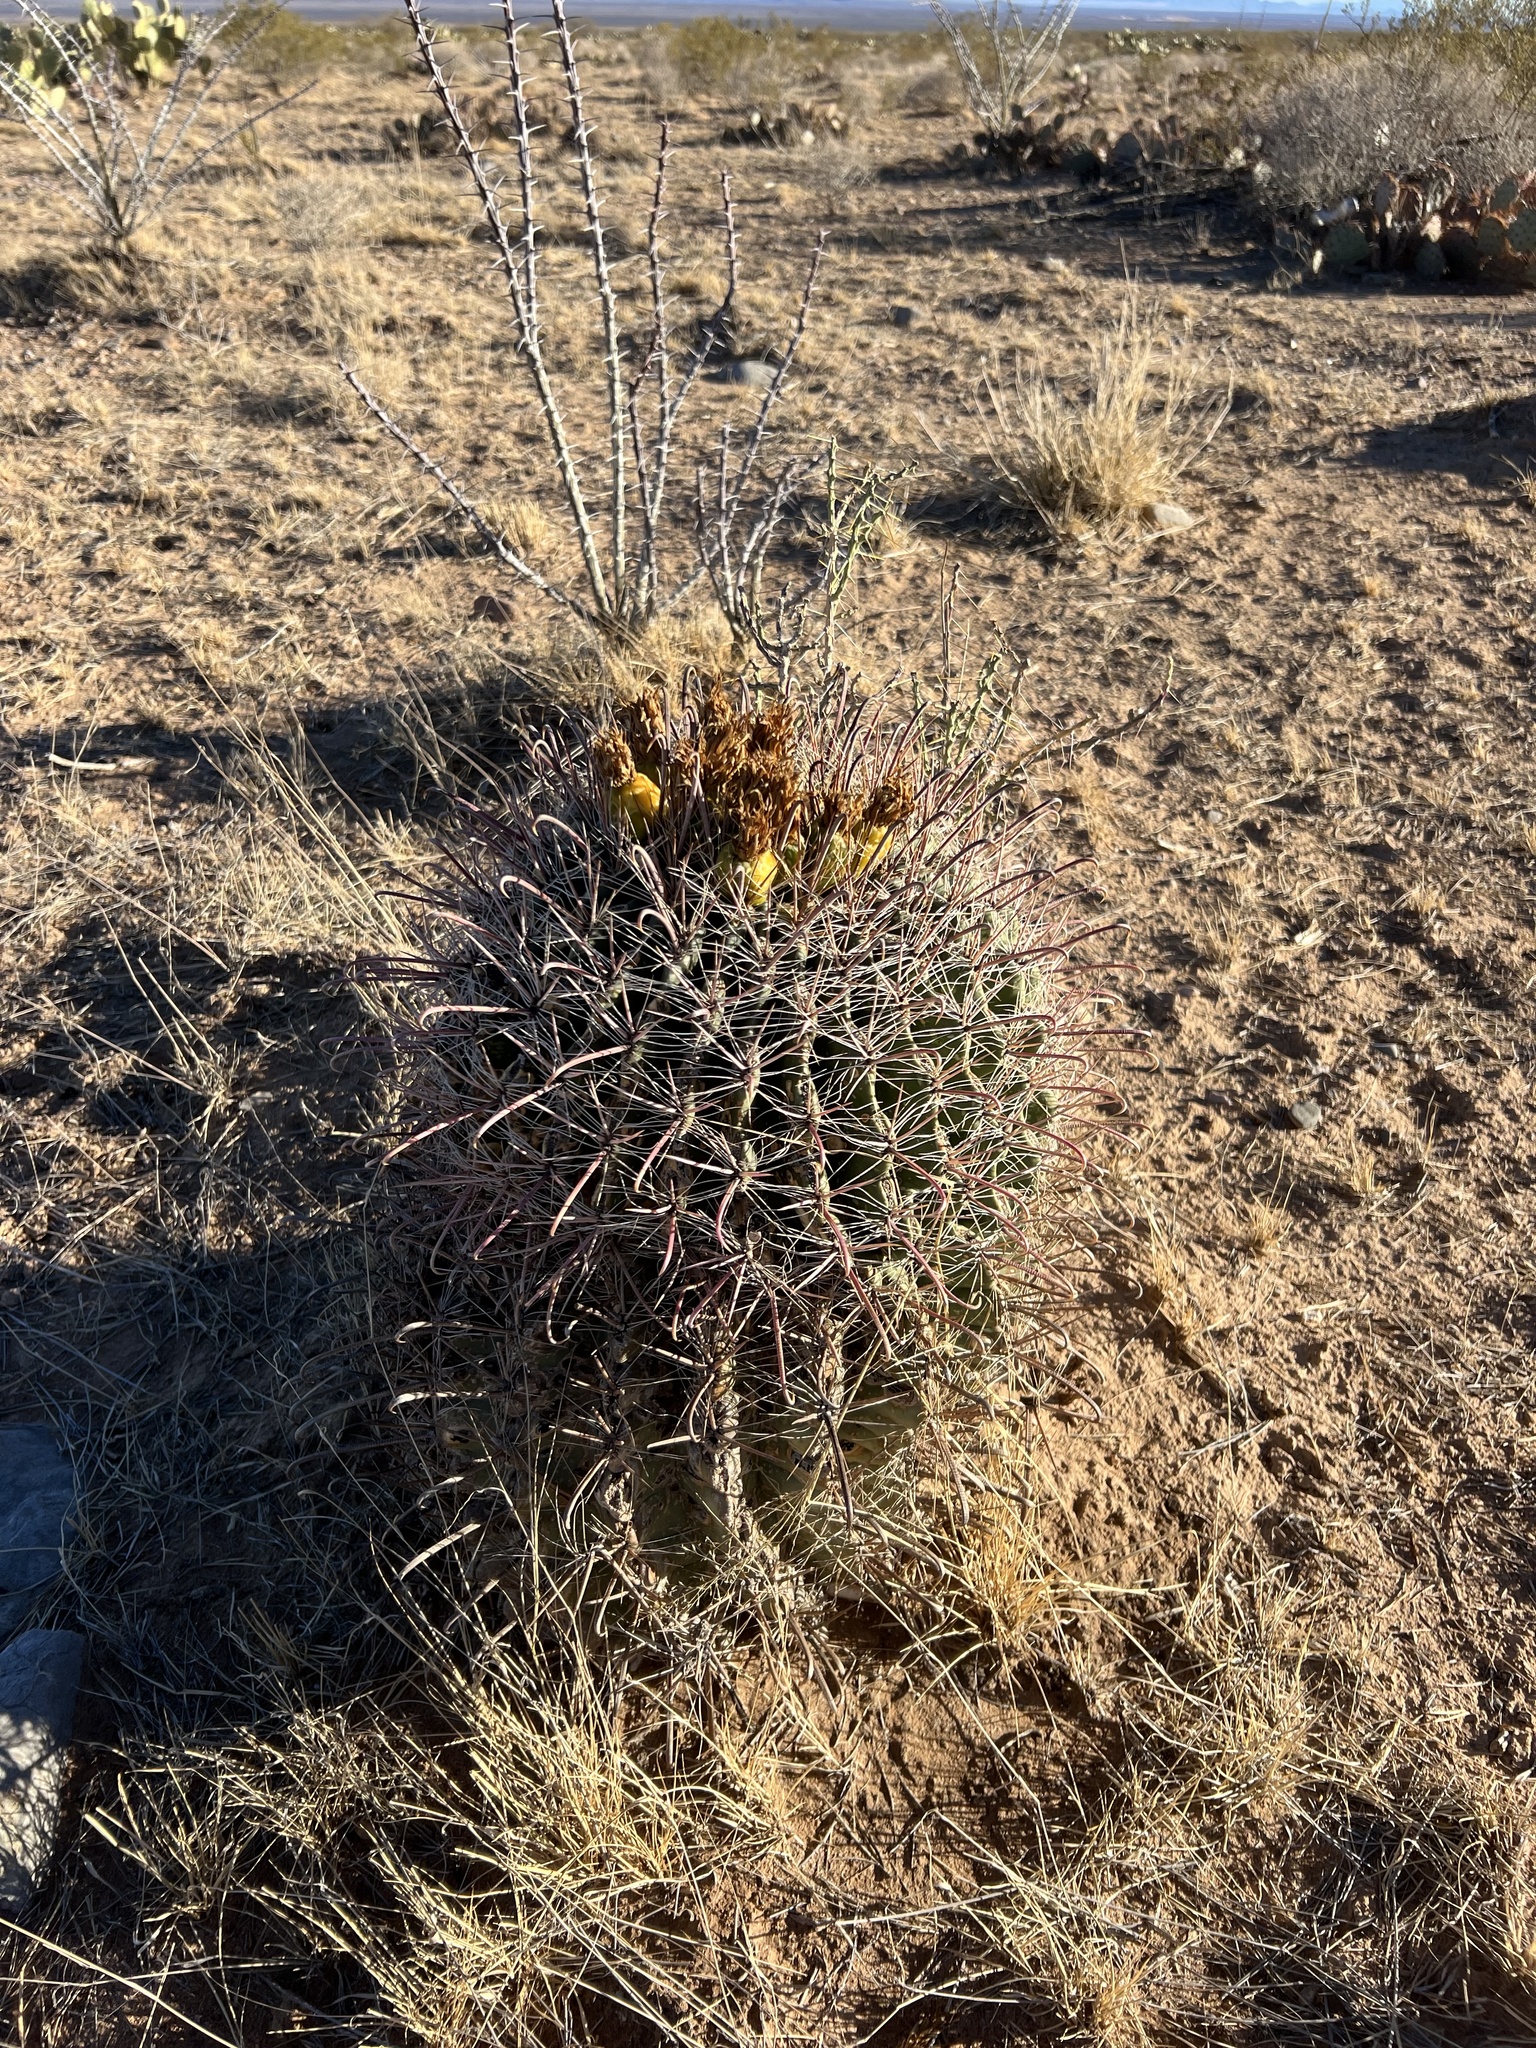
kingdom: Plantae
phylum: Tracheophyta
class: Magnoliopsida
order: Caryophyllales
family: Cactaceae
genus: Ferocactus
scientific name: Ferocactus wislizeni
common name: Candy barrel cactus
